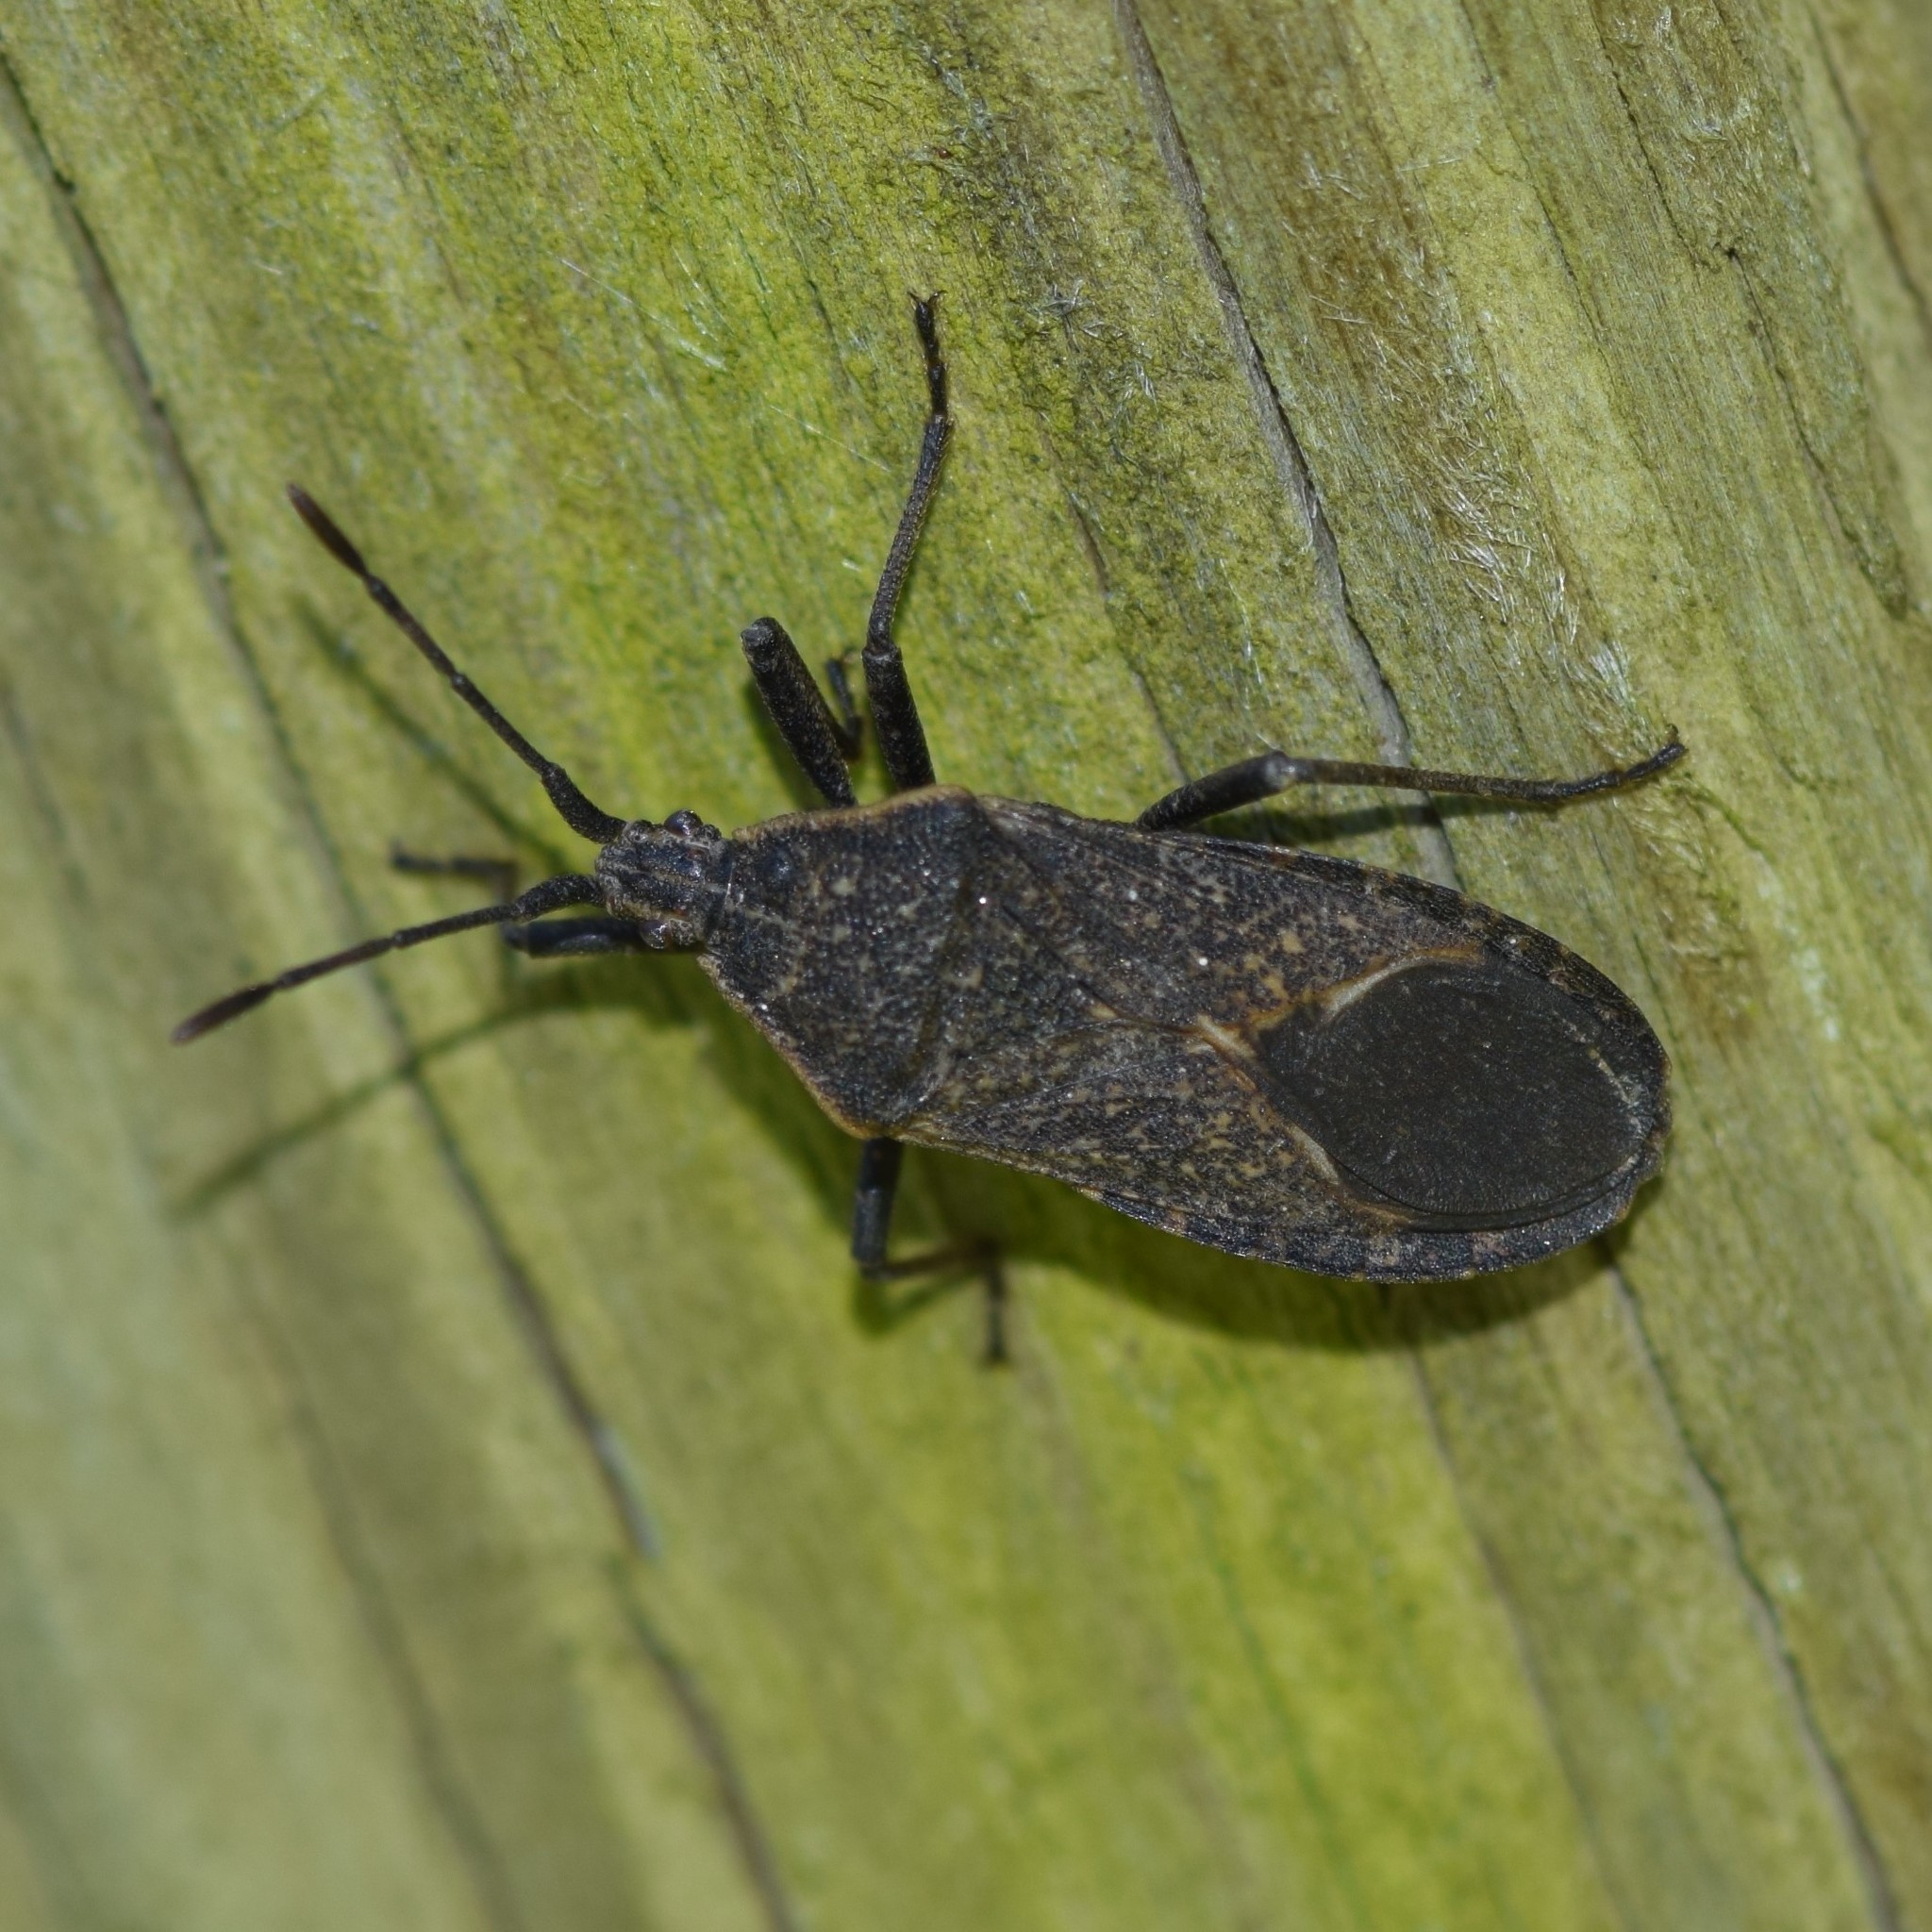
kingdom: Animalia
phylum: Arthropoda
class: Insecta
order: Hemiptera
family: Coreidae
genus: Anasa
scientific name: Anasa tristis
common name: Squash bug
